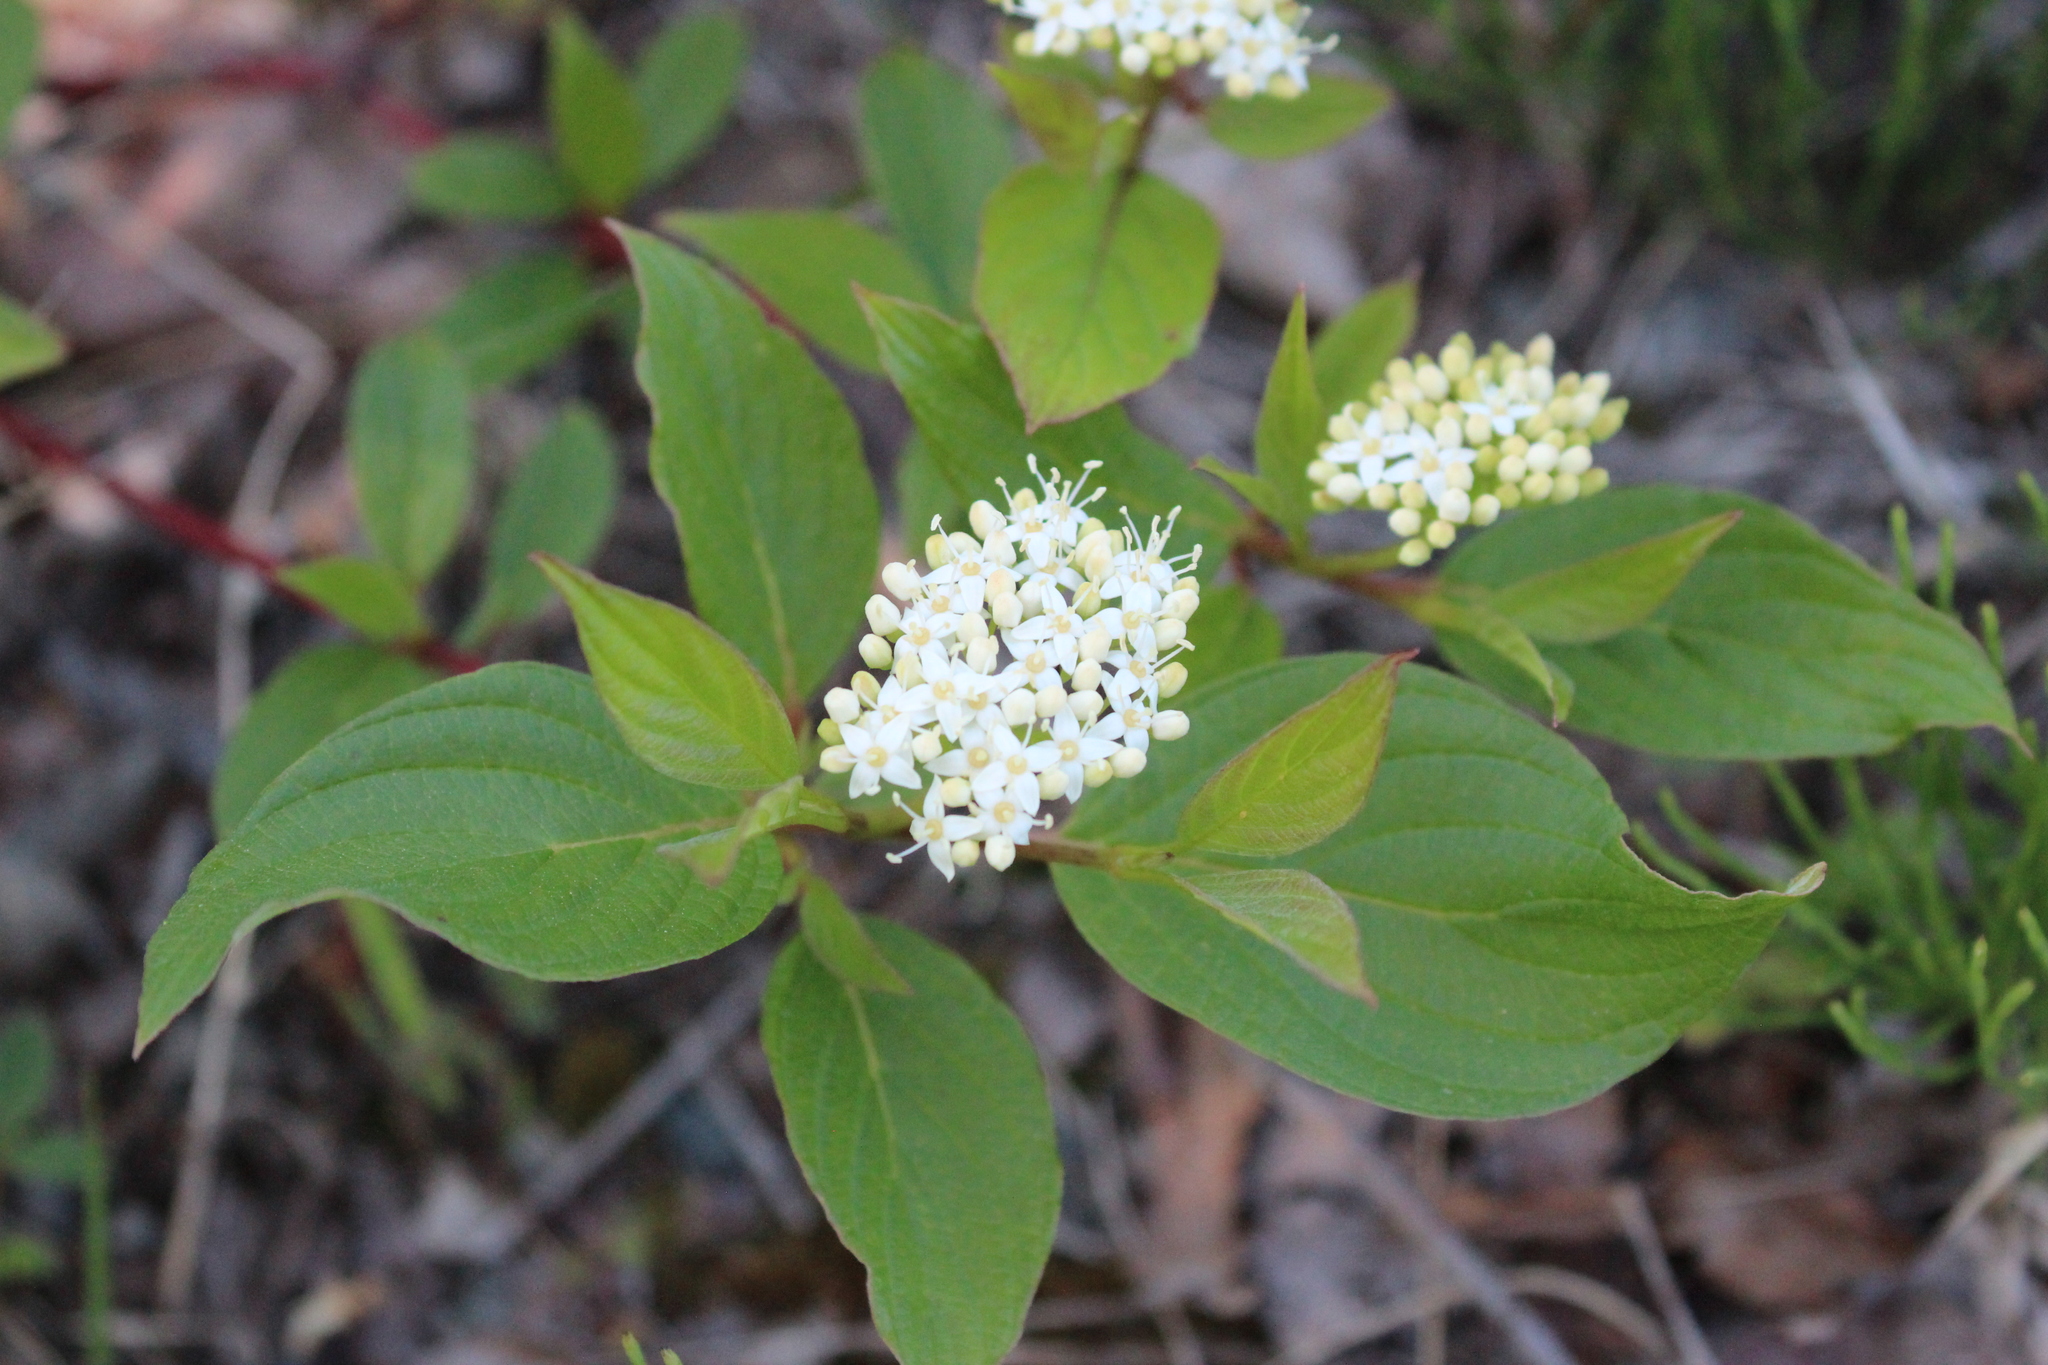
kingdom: Plantae
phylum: Tracheophyta
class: Magnoliopsida
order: Cornales
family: Cornaceae
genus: Cornus
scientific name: Cornus sericea
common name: Red-osier dogwood
